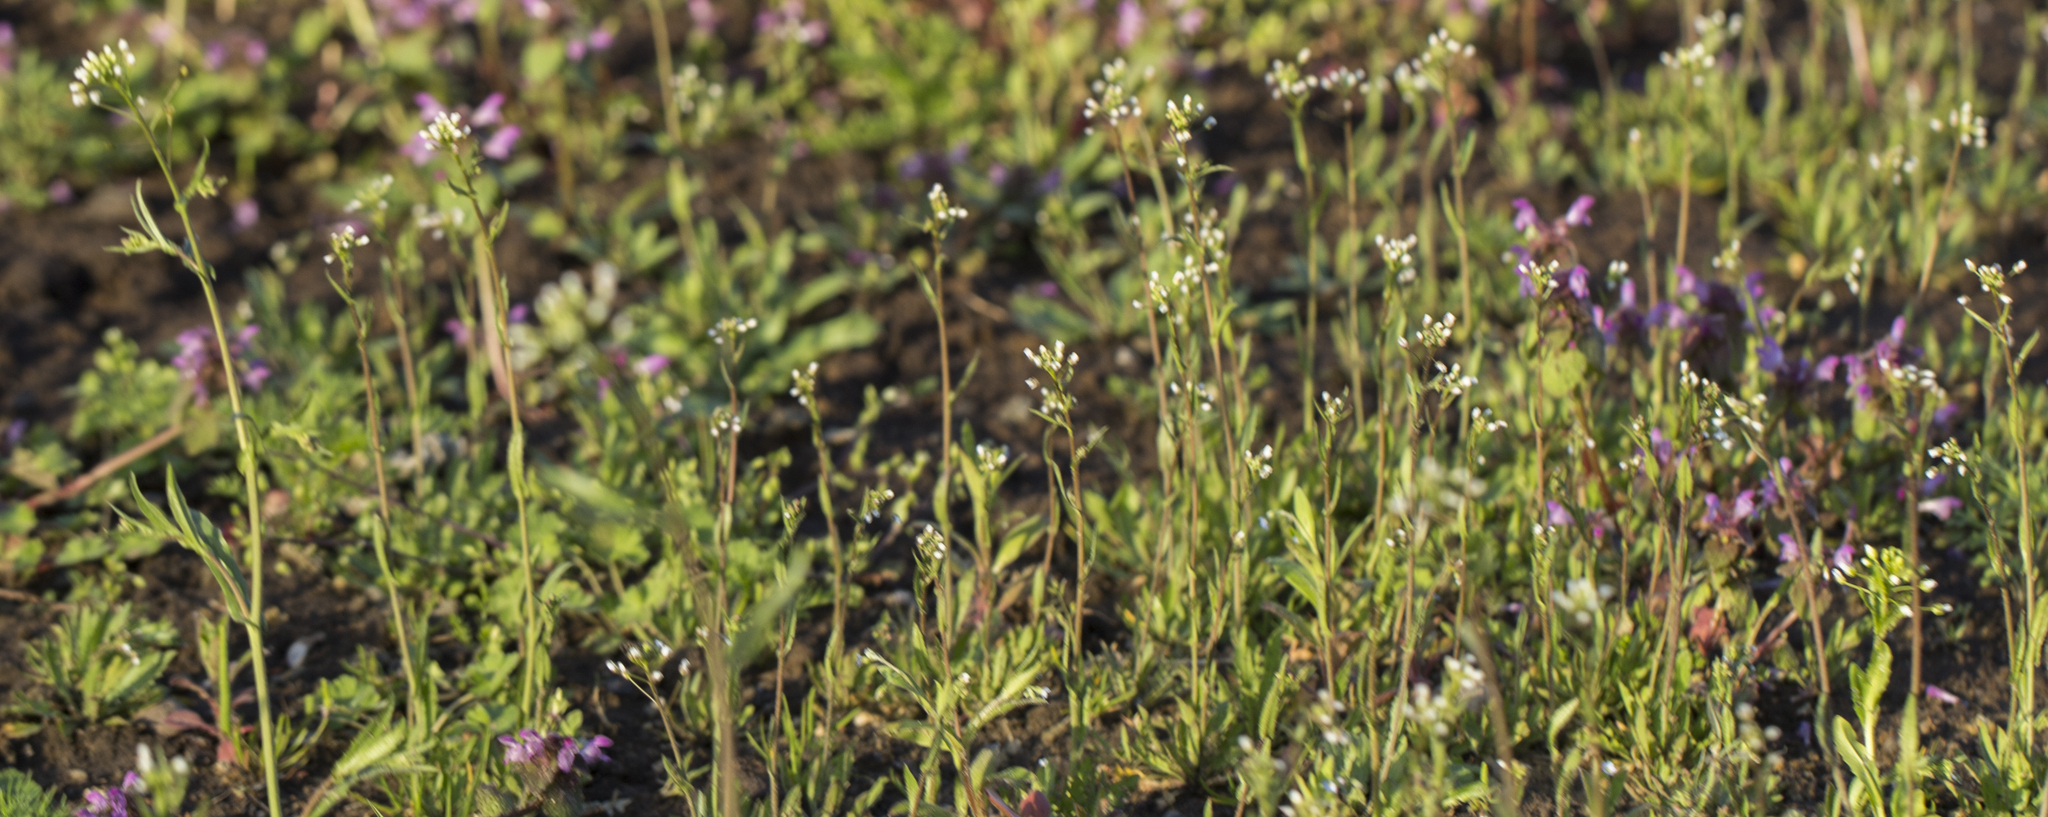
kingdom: Plantae
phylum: Tracheophyta
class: Magnoliopsida
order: Brassicales
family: Brassicaceae
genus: Capsella
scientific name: Capsella bursa-pastoris
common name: Shepherd's purse
